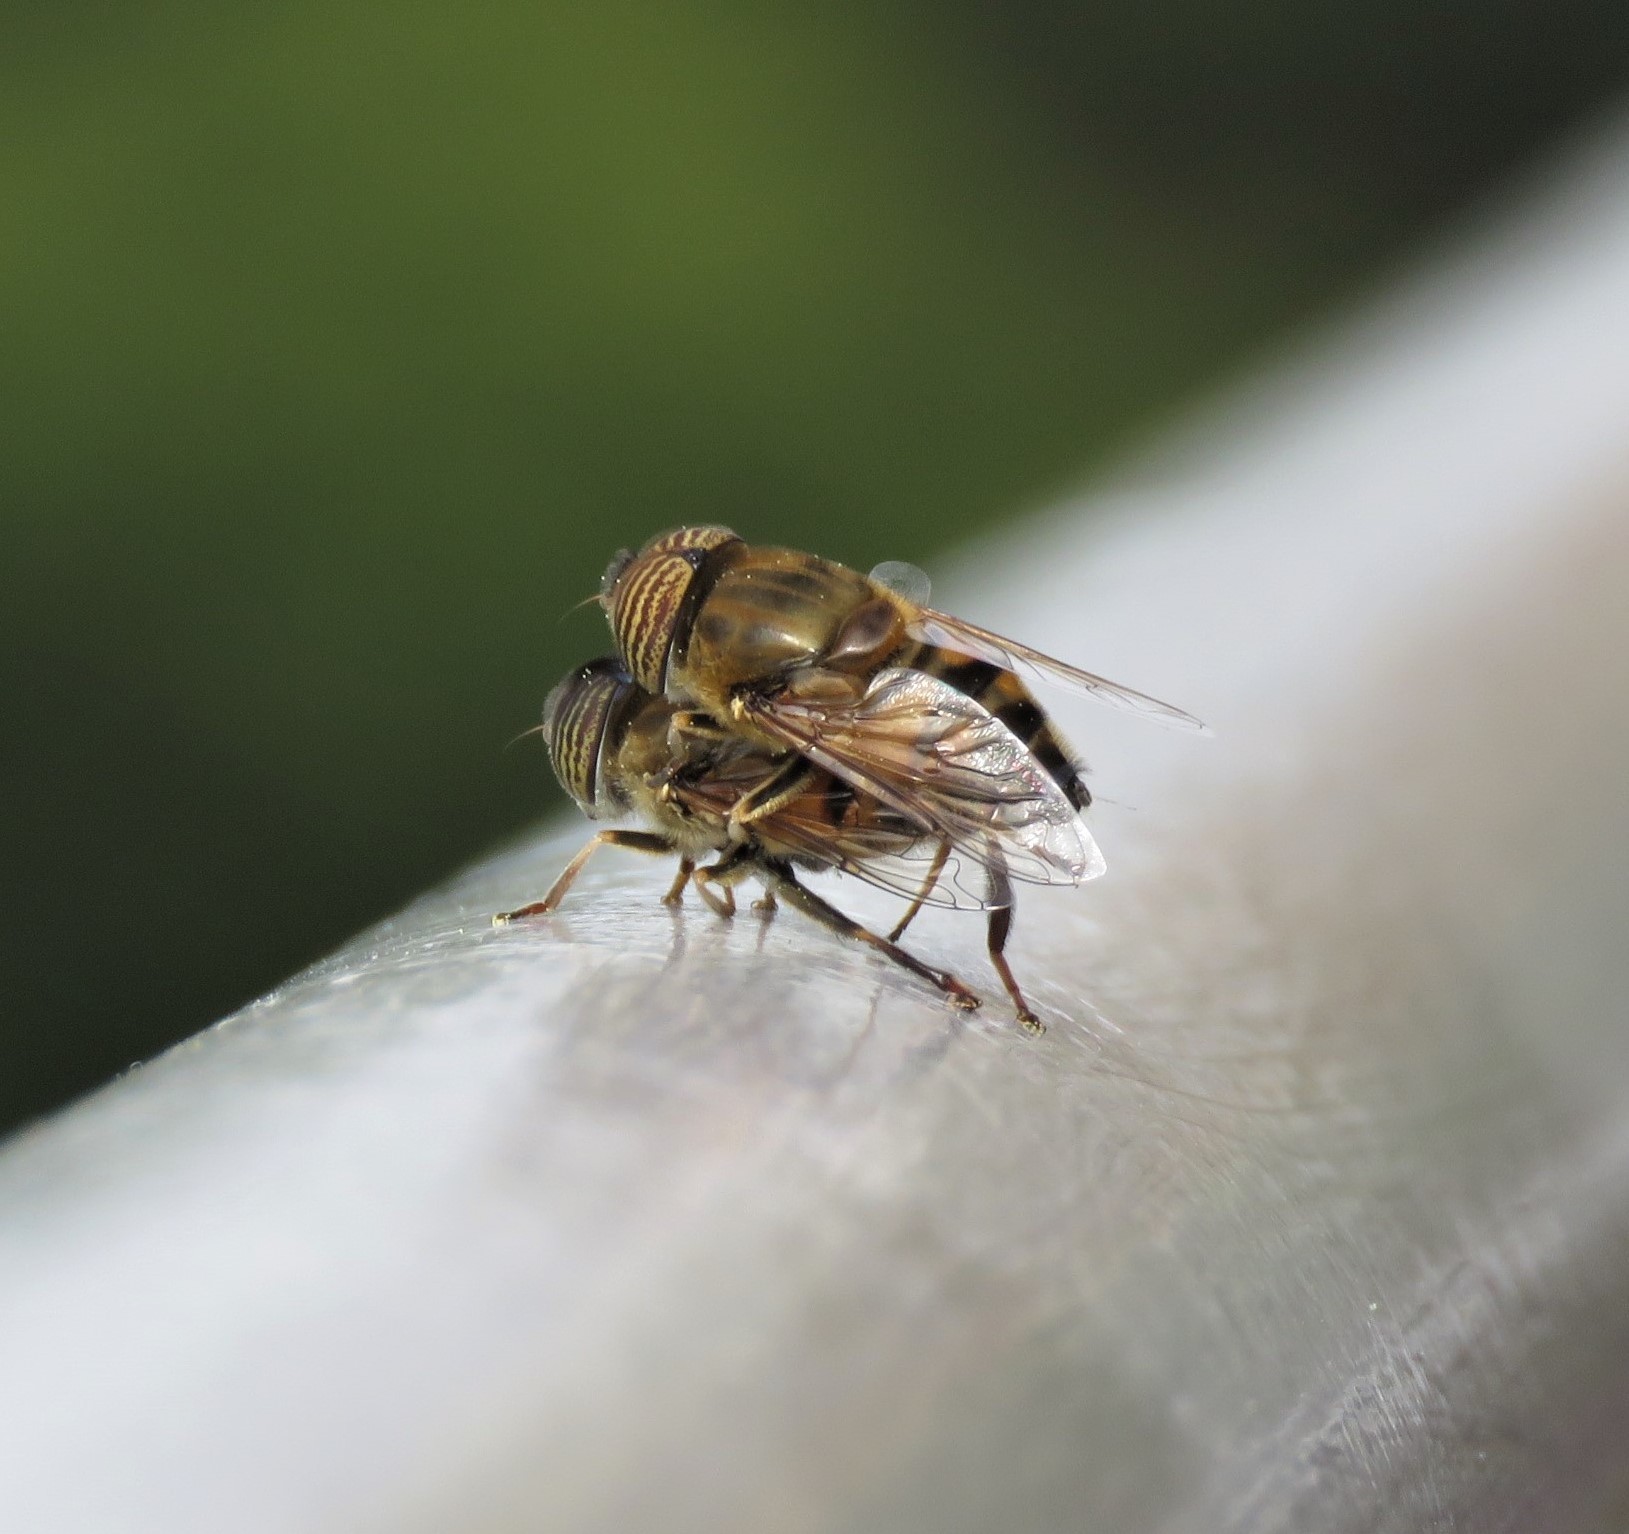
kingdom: Animalia
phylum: Arthropoda
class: Insecta
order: Diptera
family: Syrphidae
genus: Eristalinus
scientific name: Eristalinus taeniops
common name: Syrphid fly
